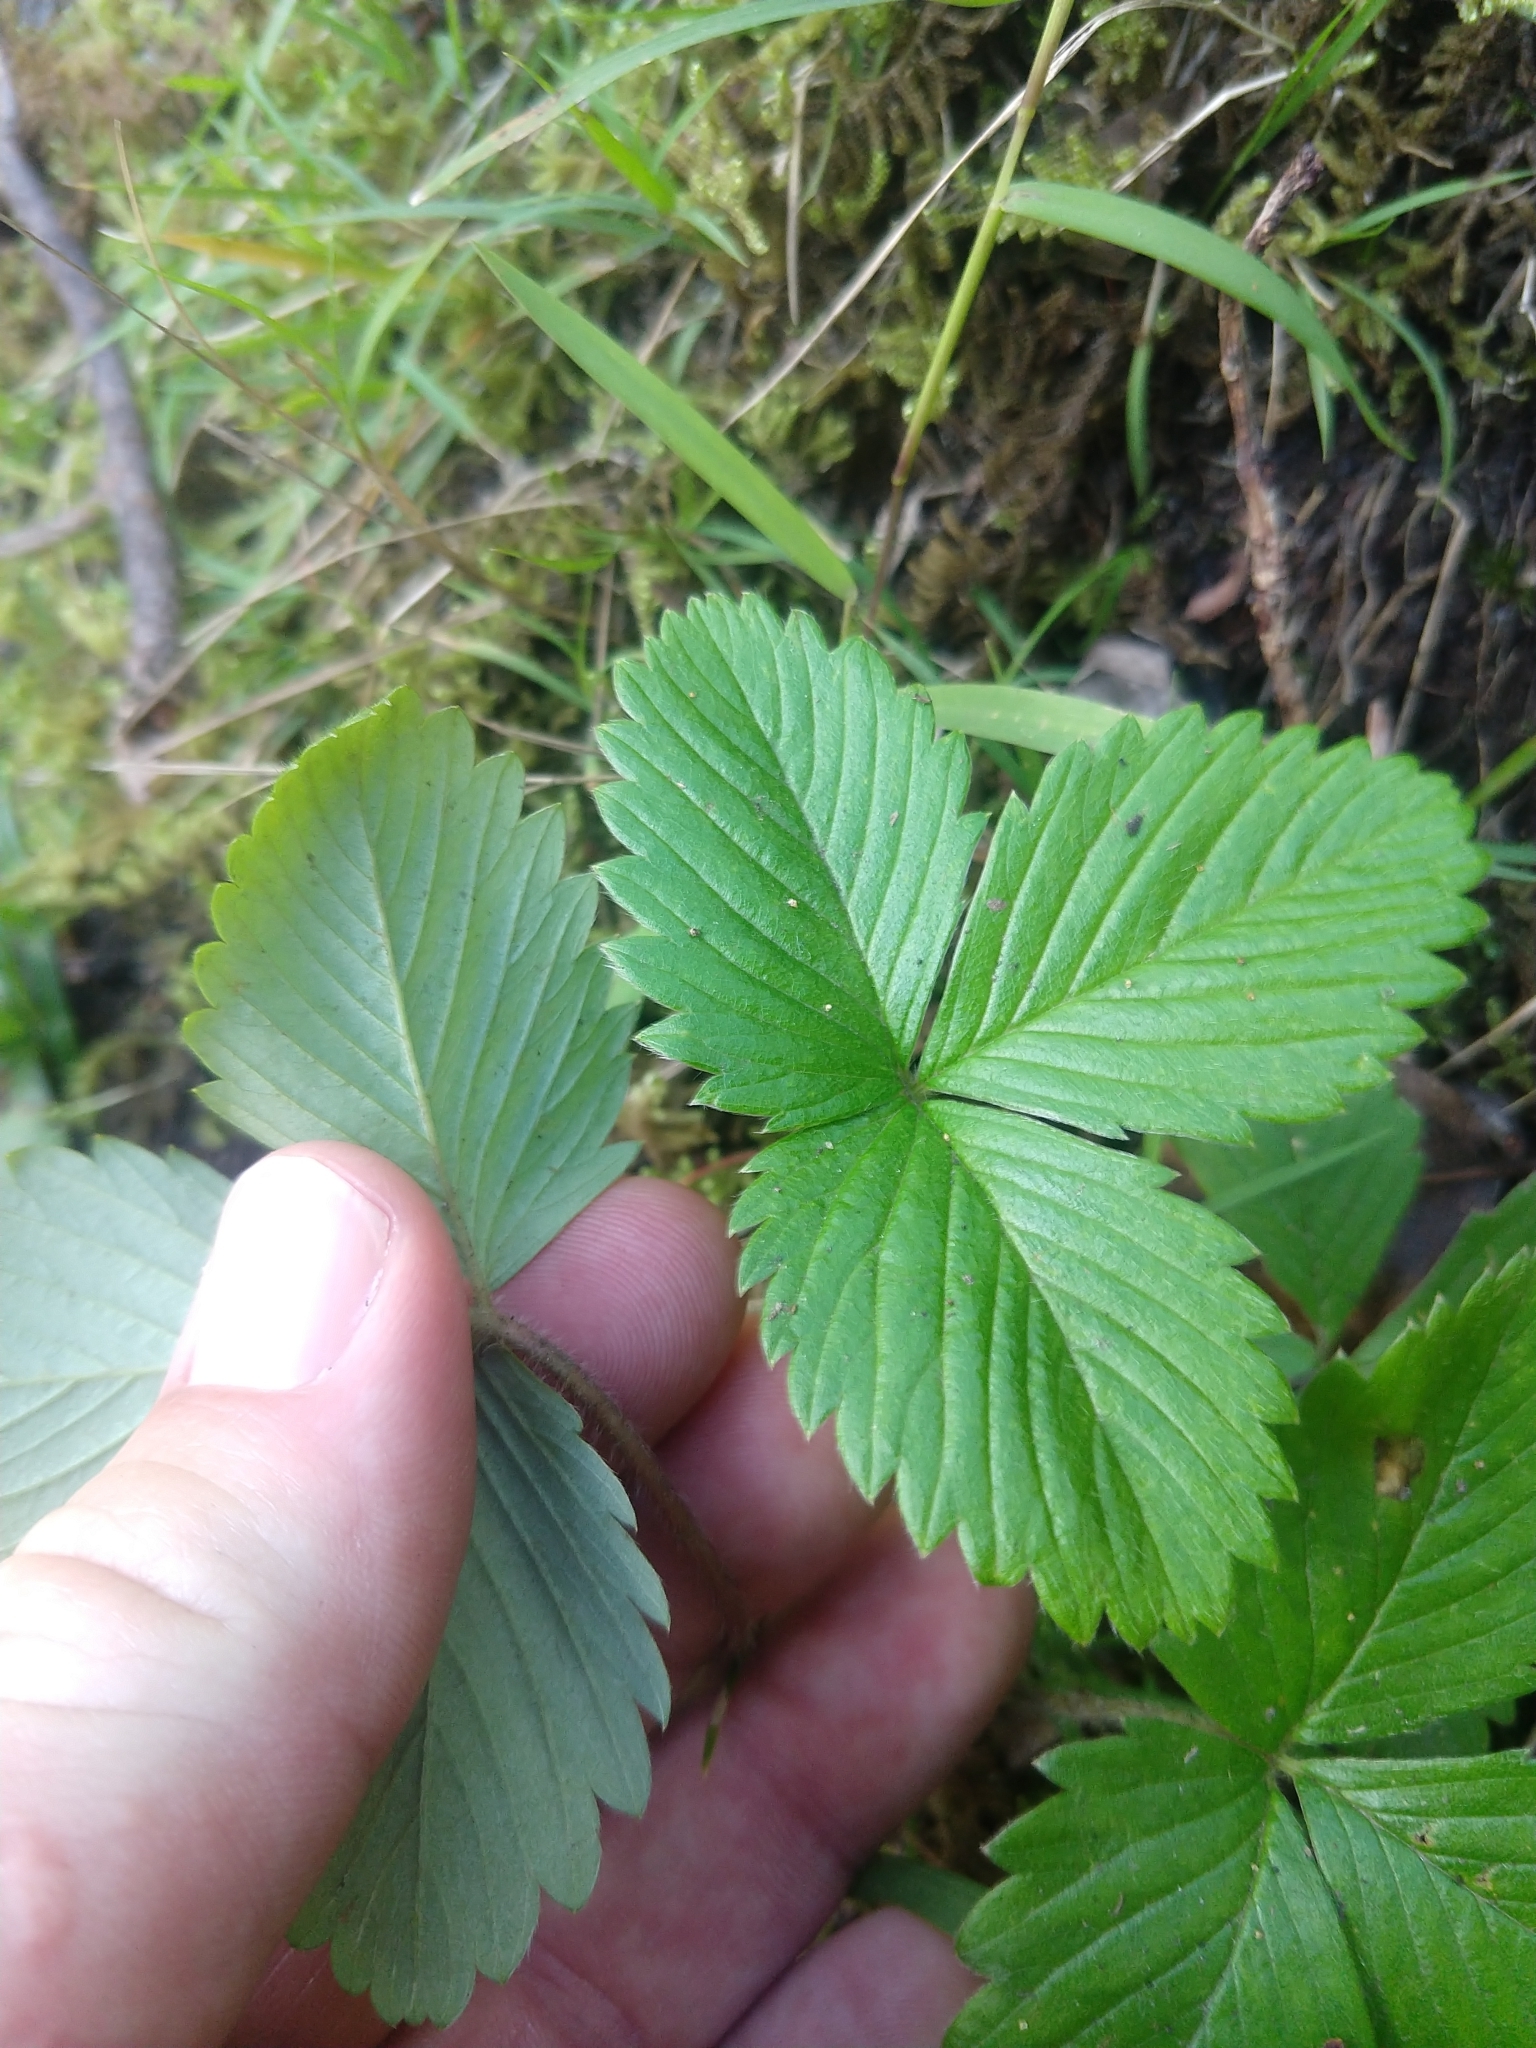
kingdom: Plantae
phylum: Tracheophyta
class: Magnoliopsida
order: Rosales
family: Rosaceae
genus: Fragaria
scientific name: Fragaria vesca
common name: Wild strawberry
